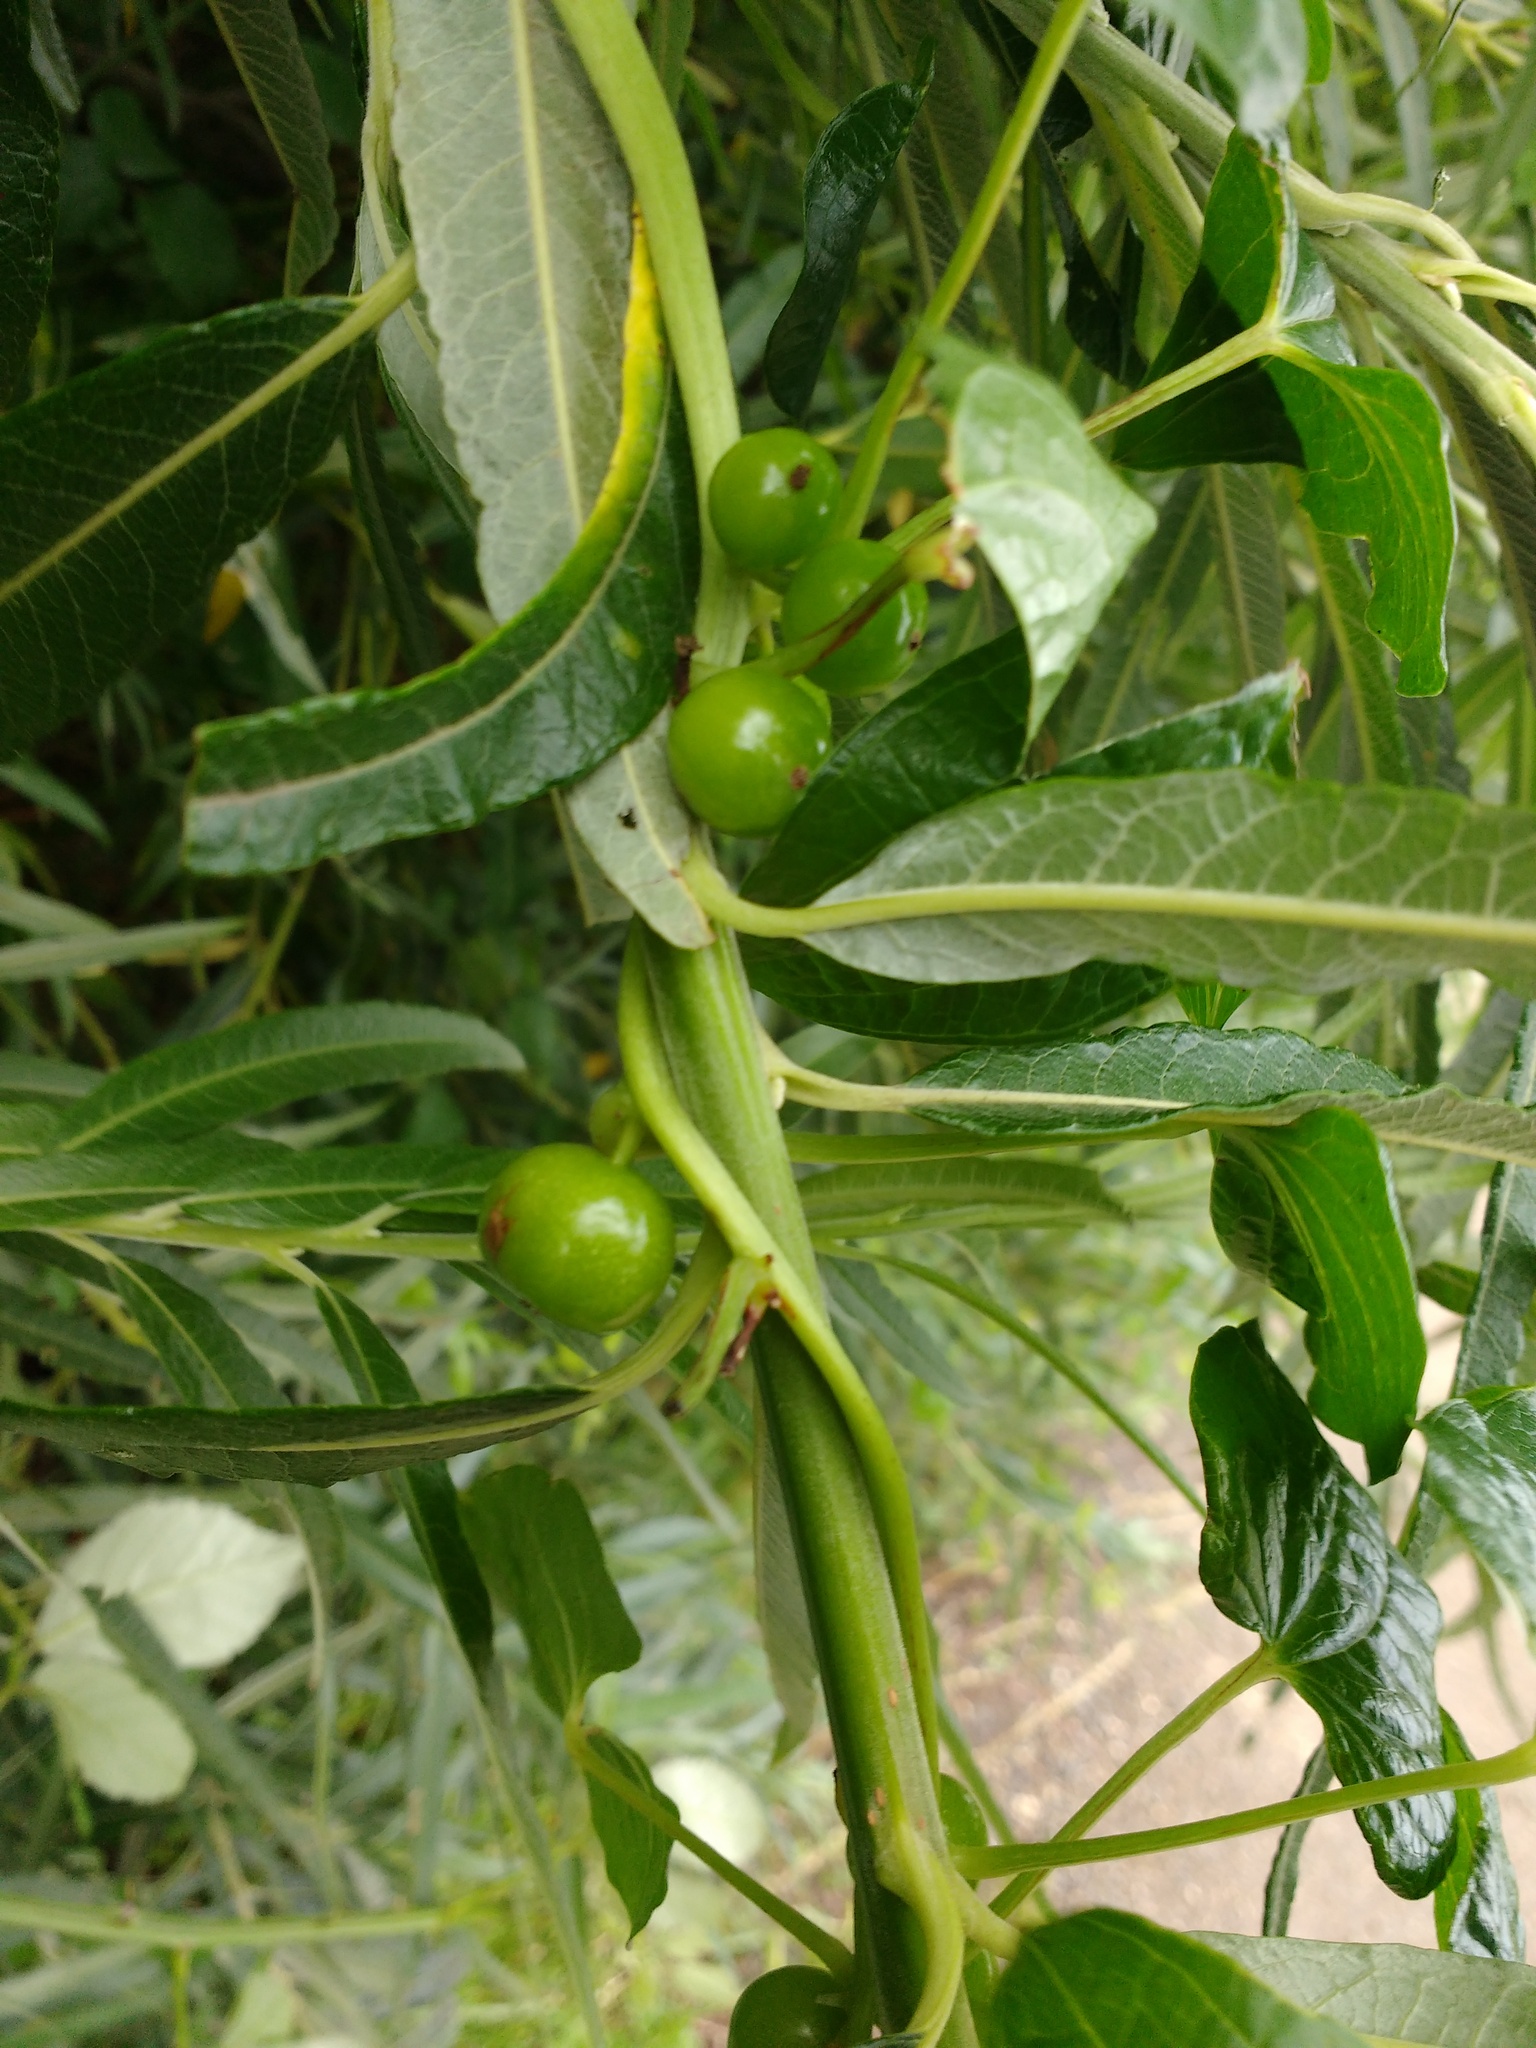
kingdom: Plantae
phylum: Tracheophyta
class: Liliopsida
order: Dioscoreales
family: Dioscoreaceae
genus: Dioscorea
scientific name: Dioscorea communis
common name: Black-bindweed
